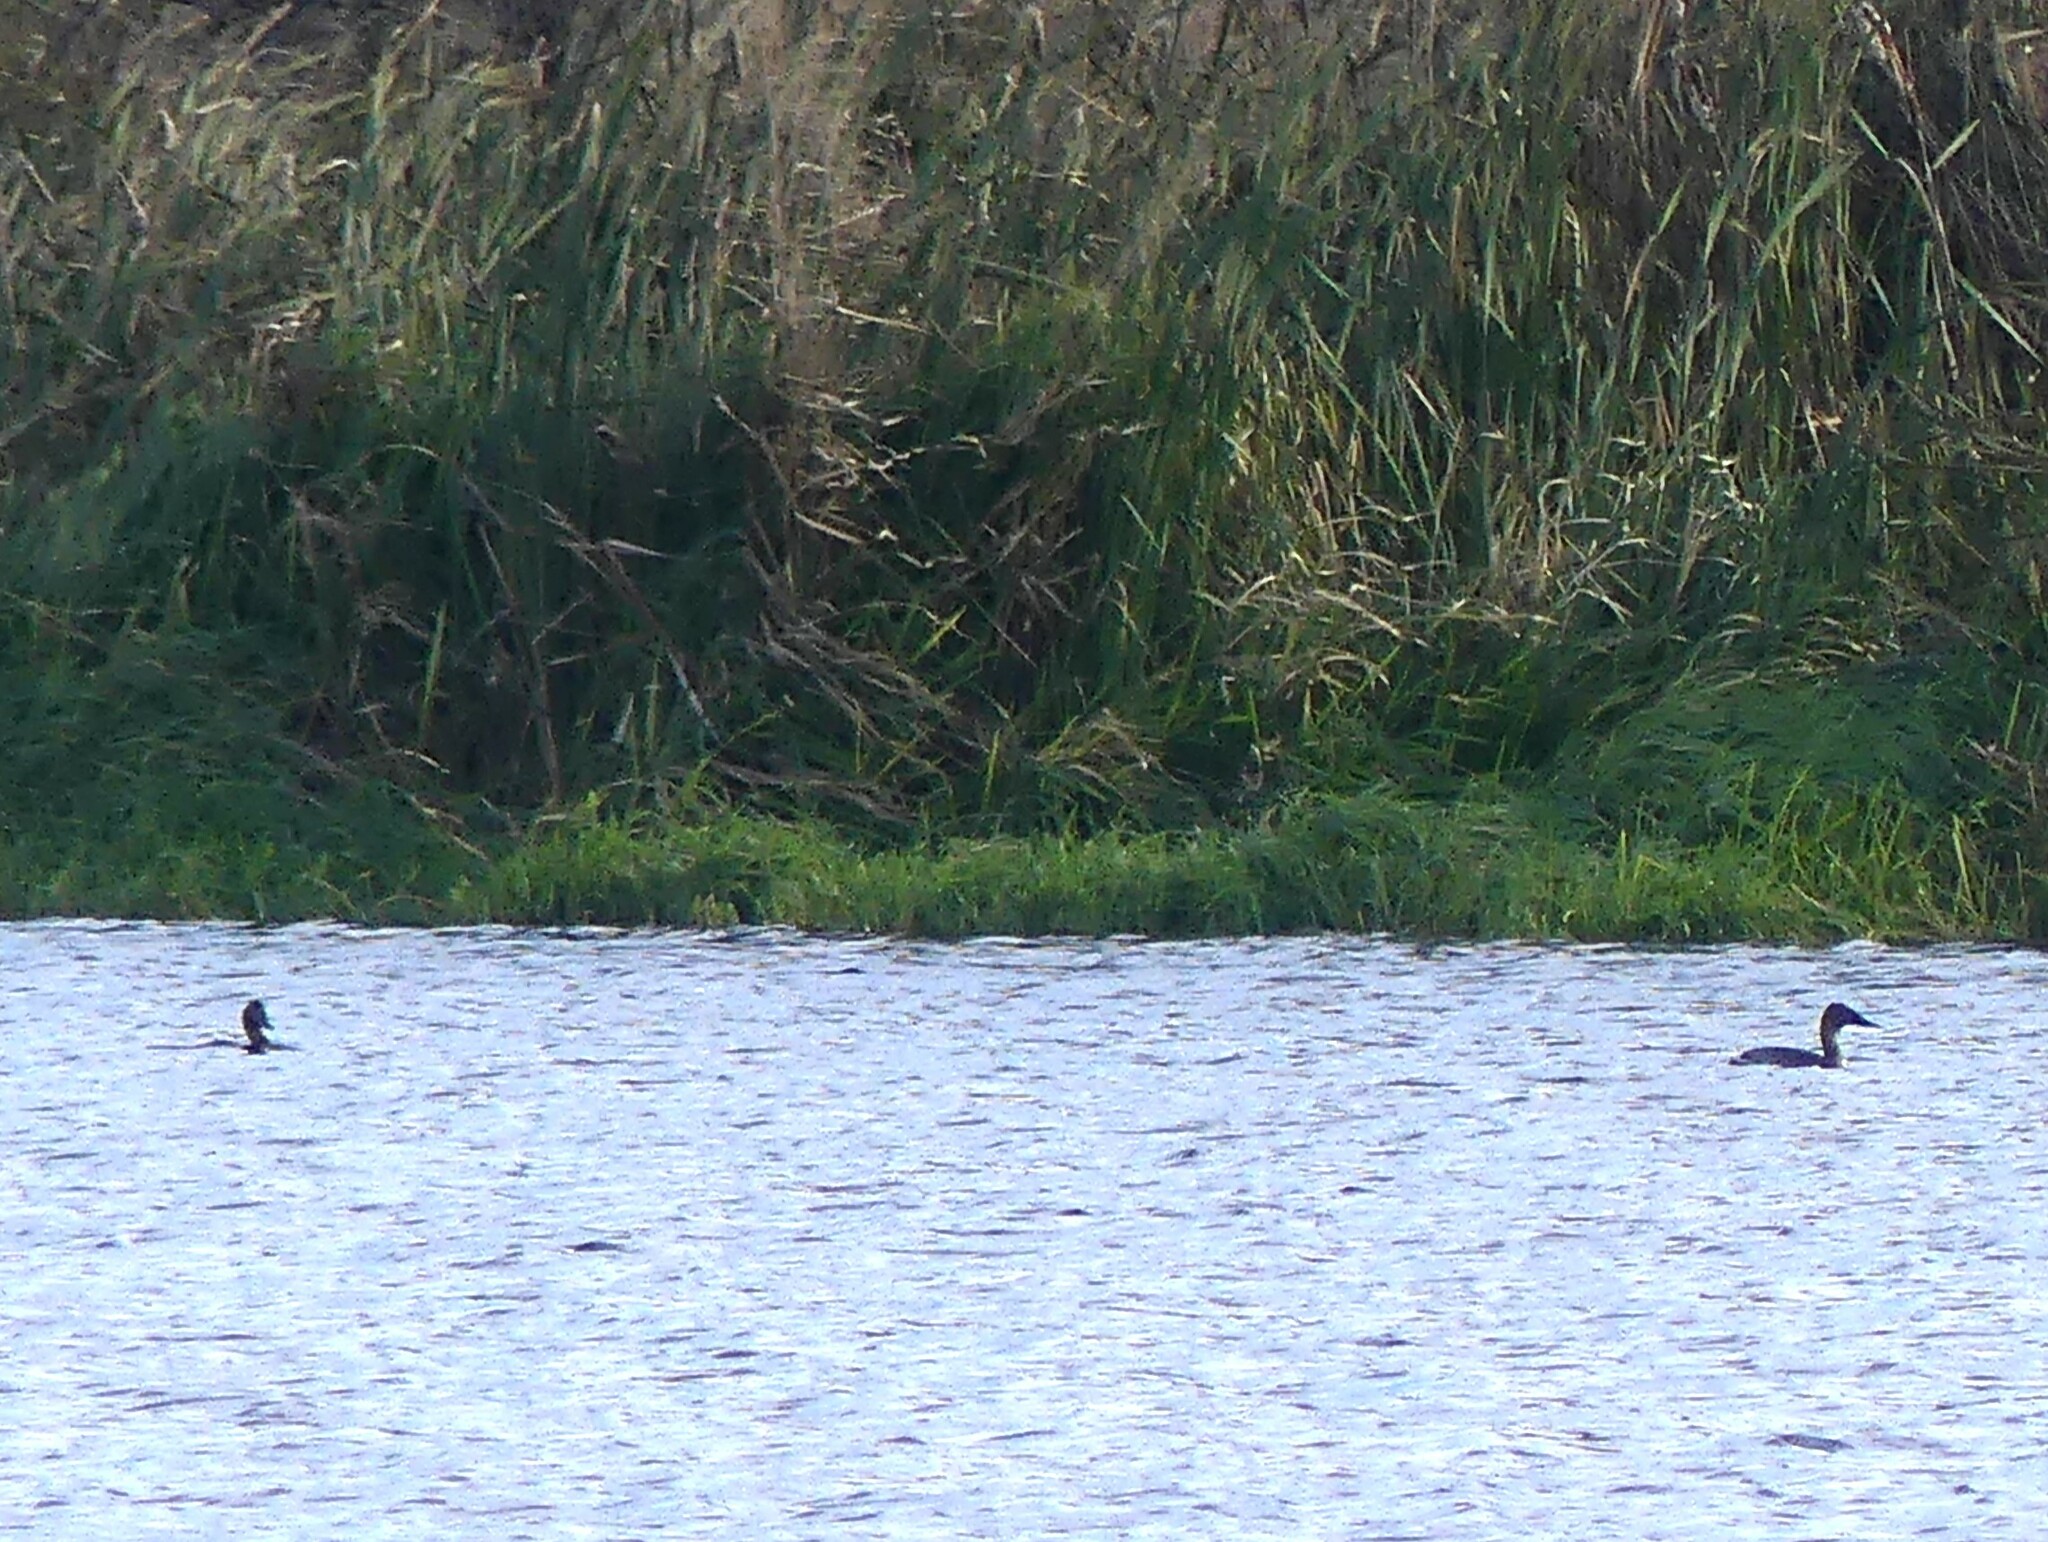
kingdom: Animalia
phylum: Chordata
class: Aves
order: Anseriformes
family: Anatidae
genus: Aythya
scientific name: Aythya valisineria
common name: Canvasback
